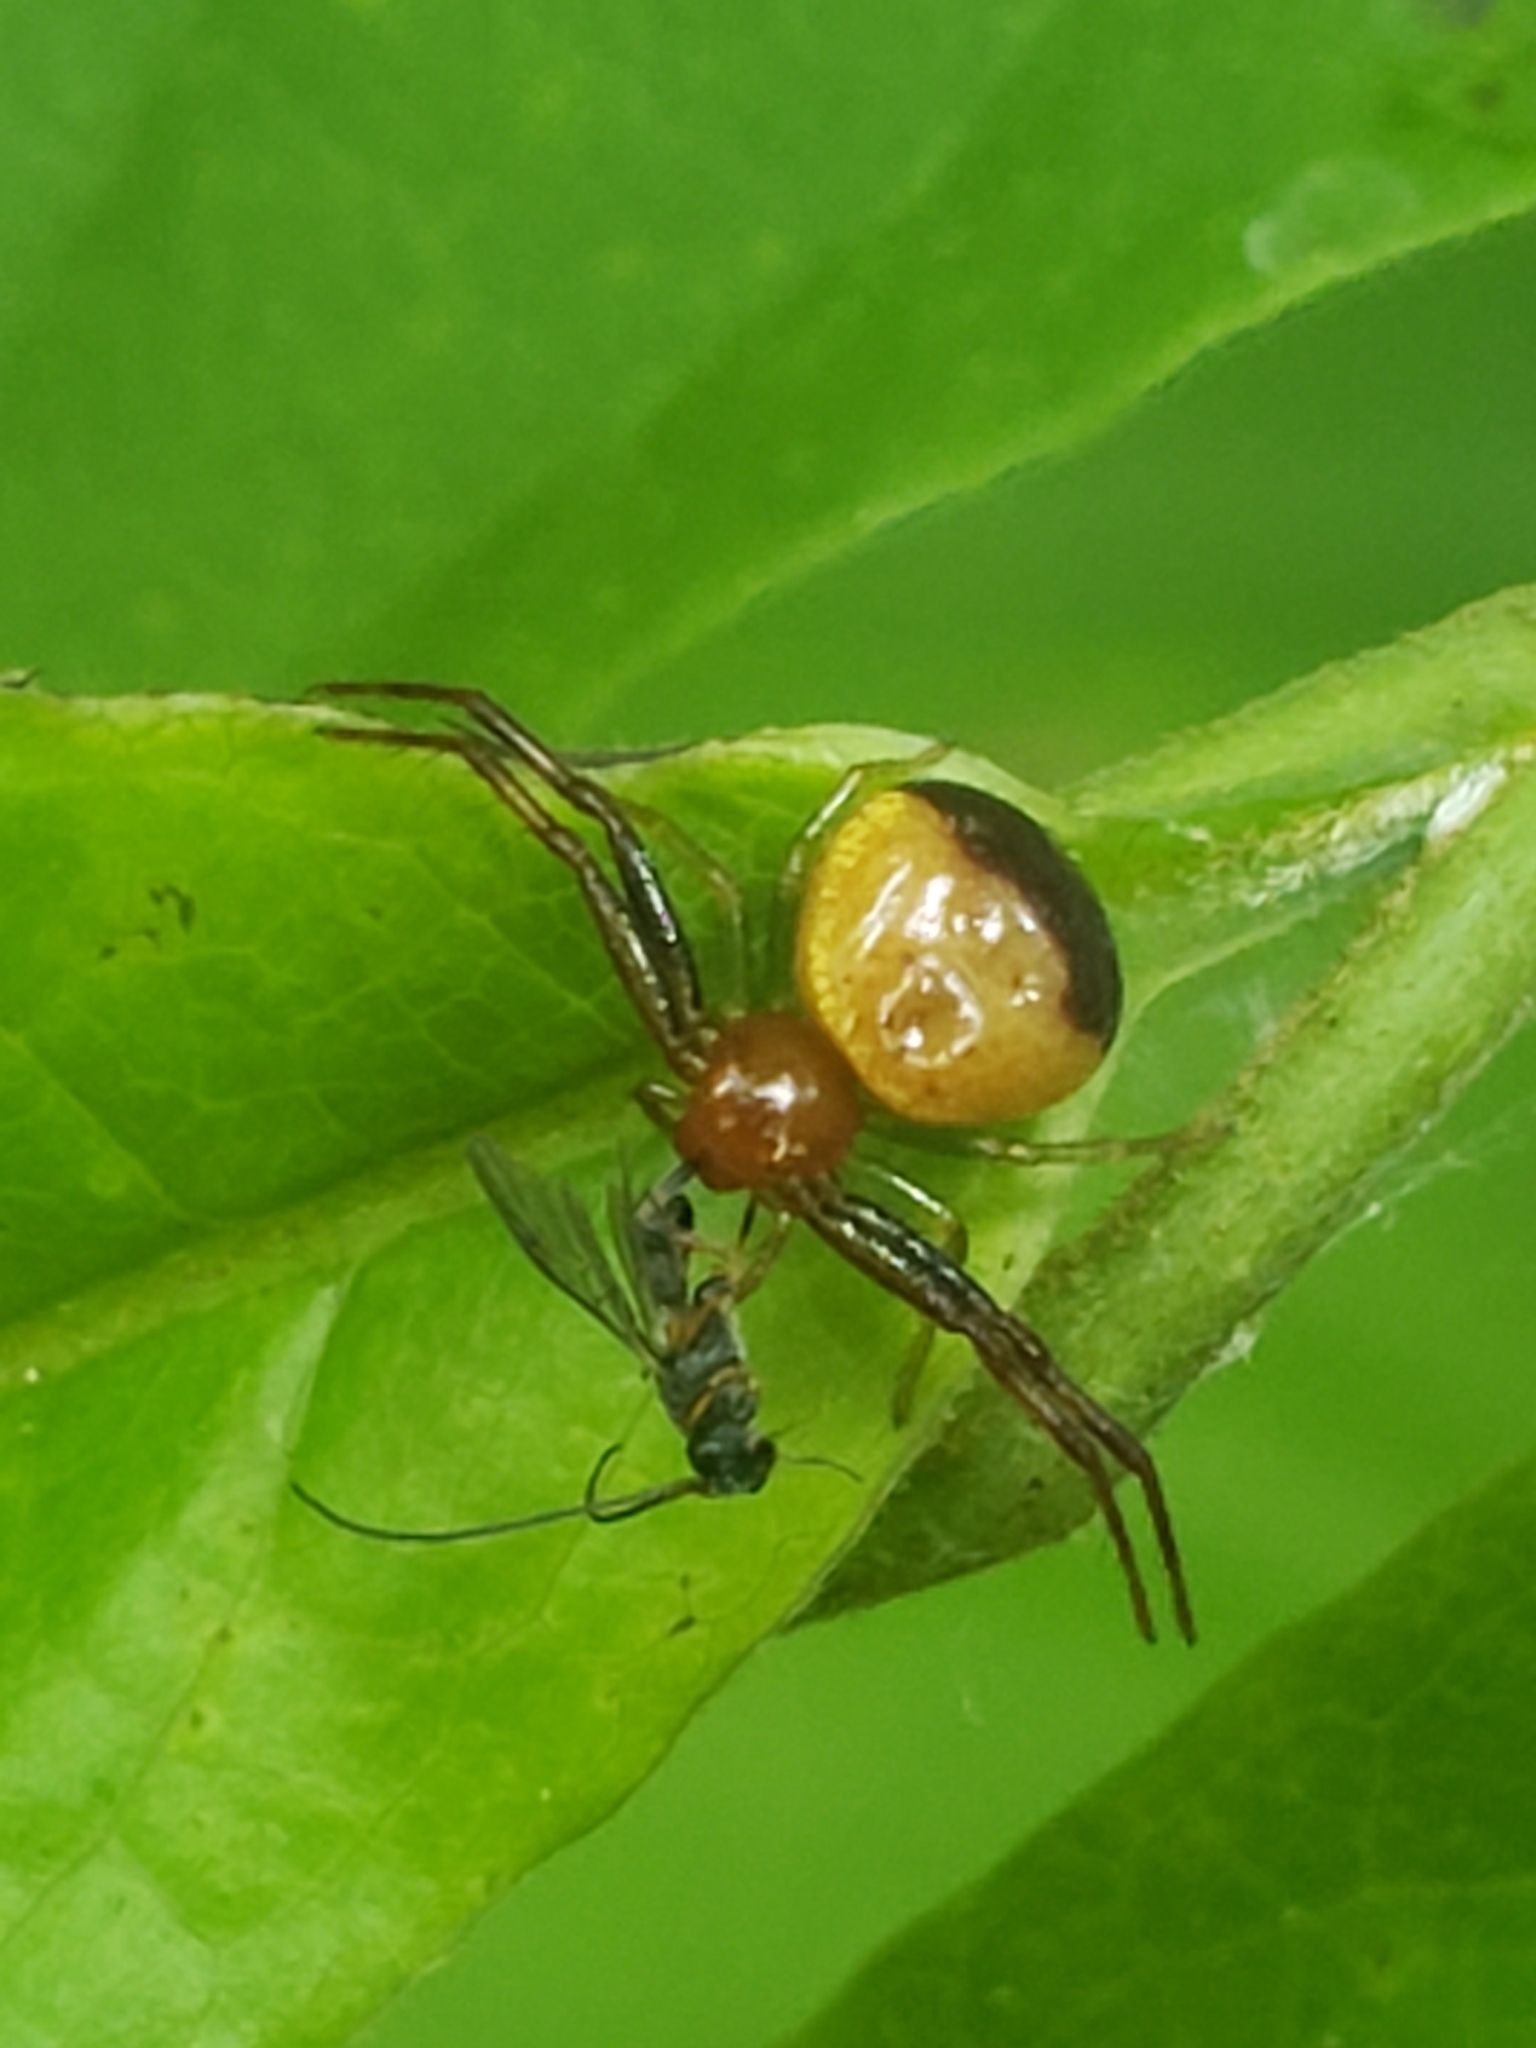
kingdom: Animalia
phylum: Arthropoda
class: Arachnida
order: Araneae
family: Thomisidae
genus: Synema
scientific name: Synema parvulum
